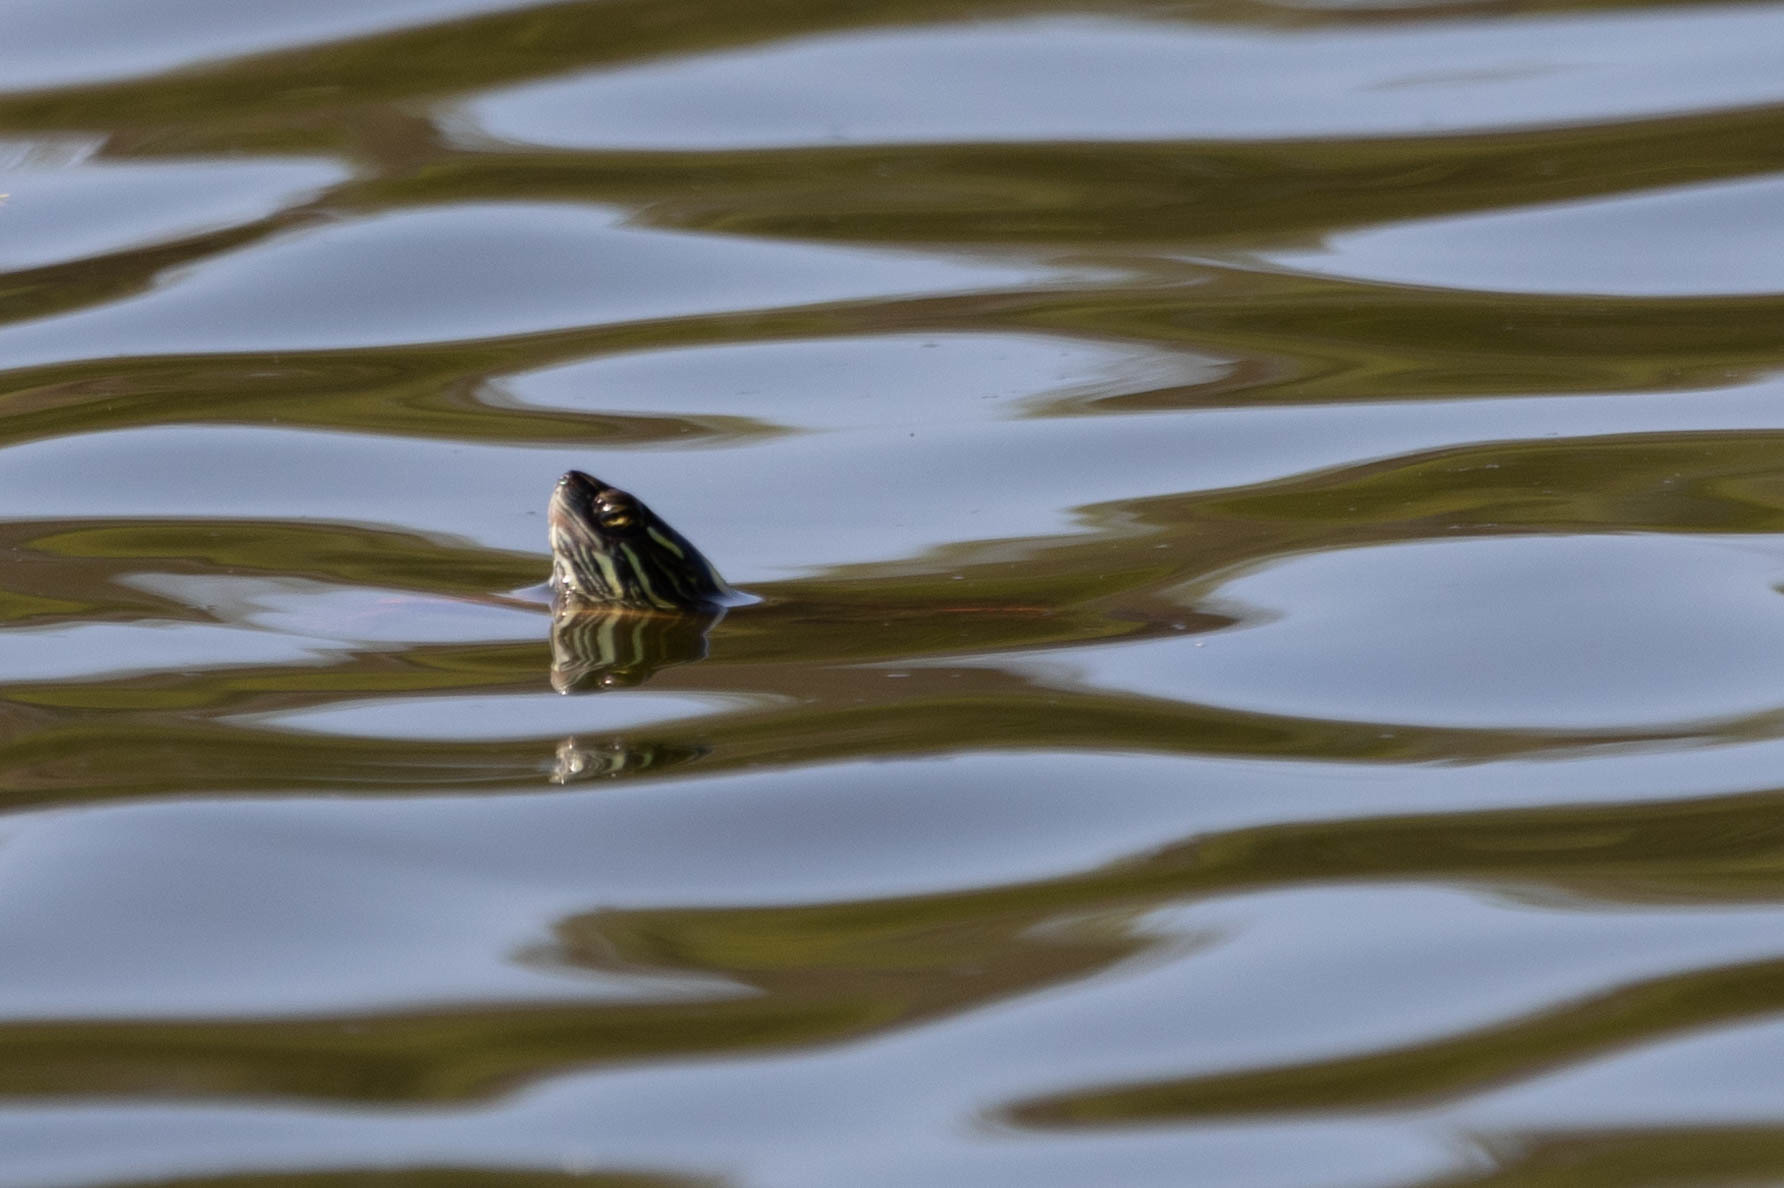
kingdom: Animalia
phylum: Chordata
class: Testudines
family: Emydidae
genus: Chrysemys
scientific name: Chrysemys picta
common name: Painted turtle
